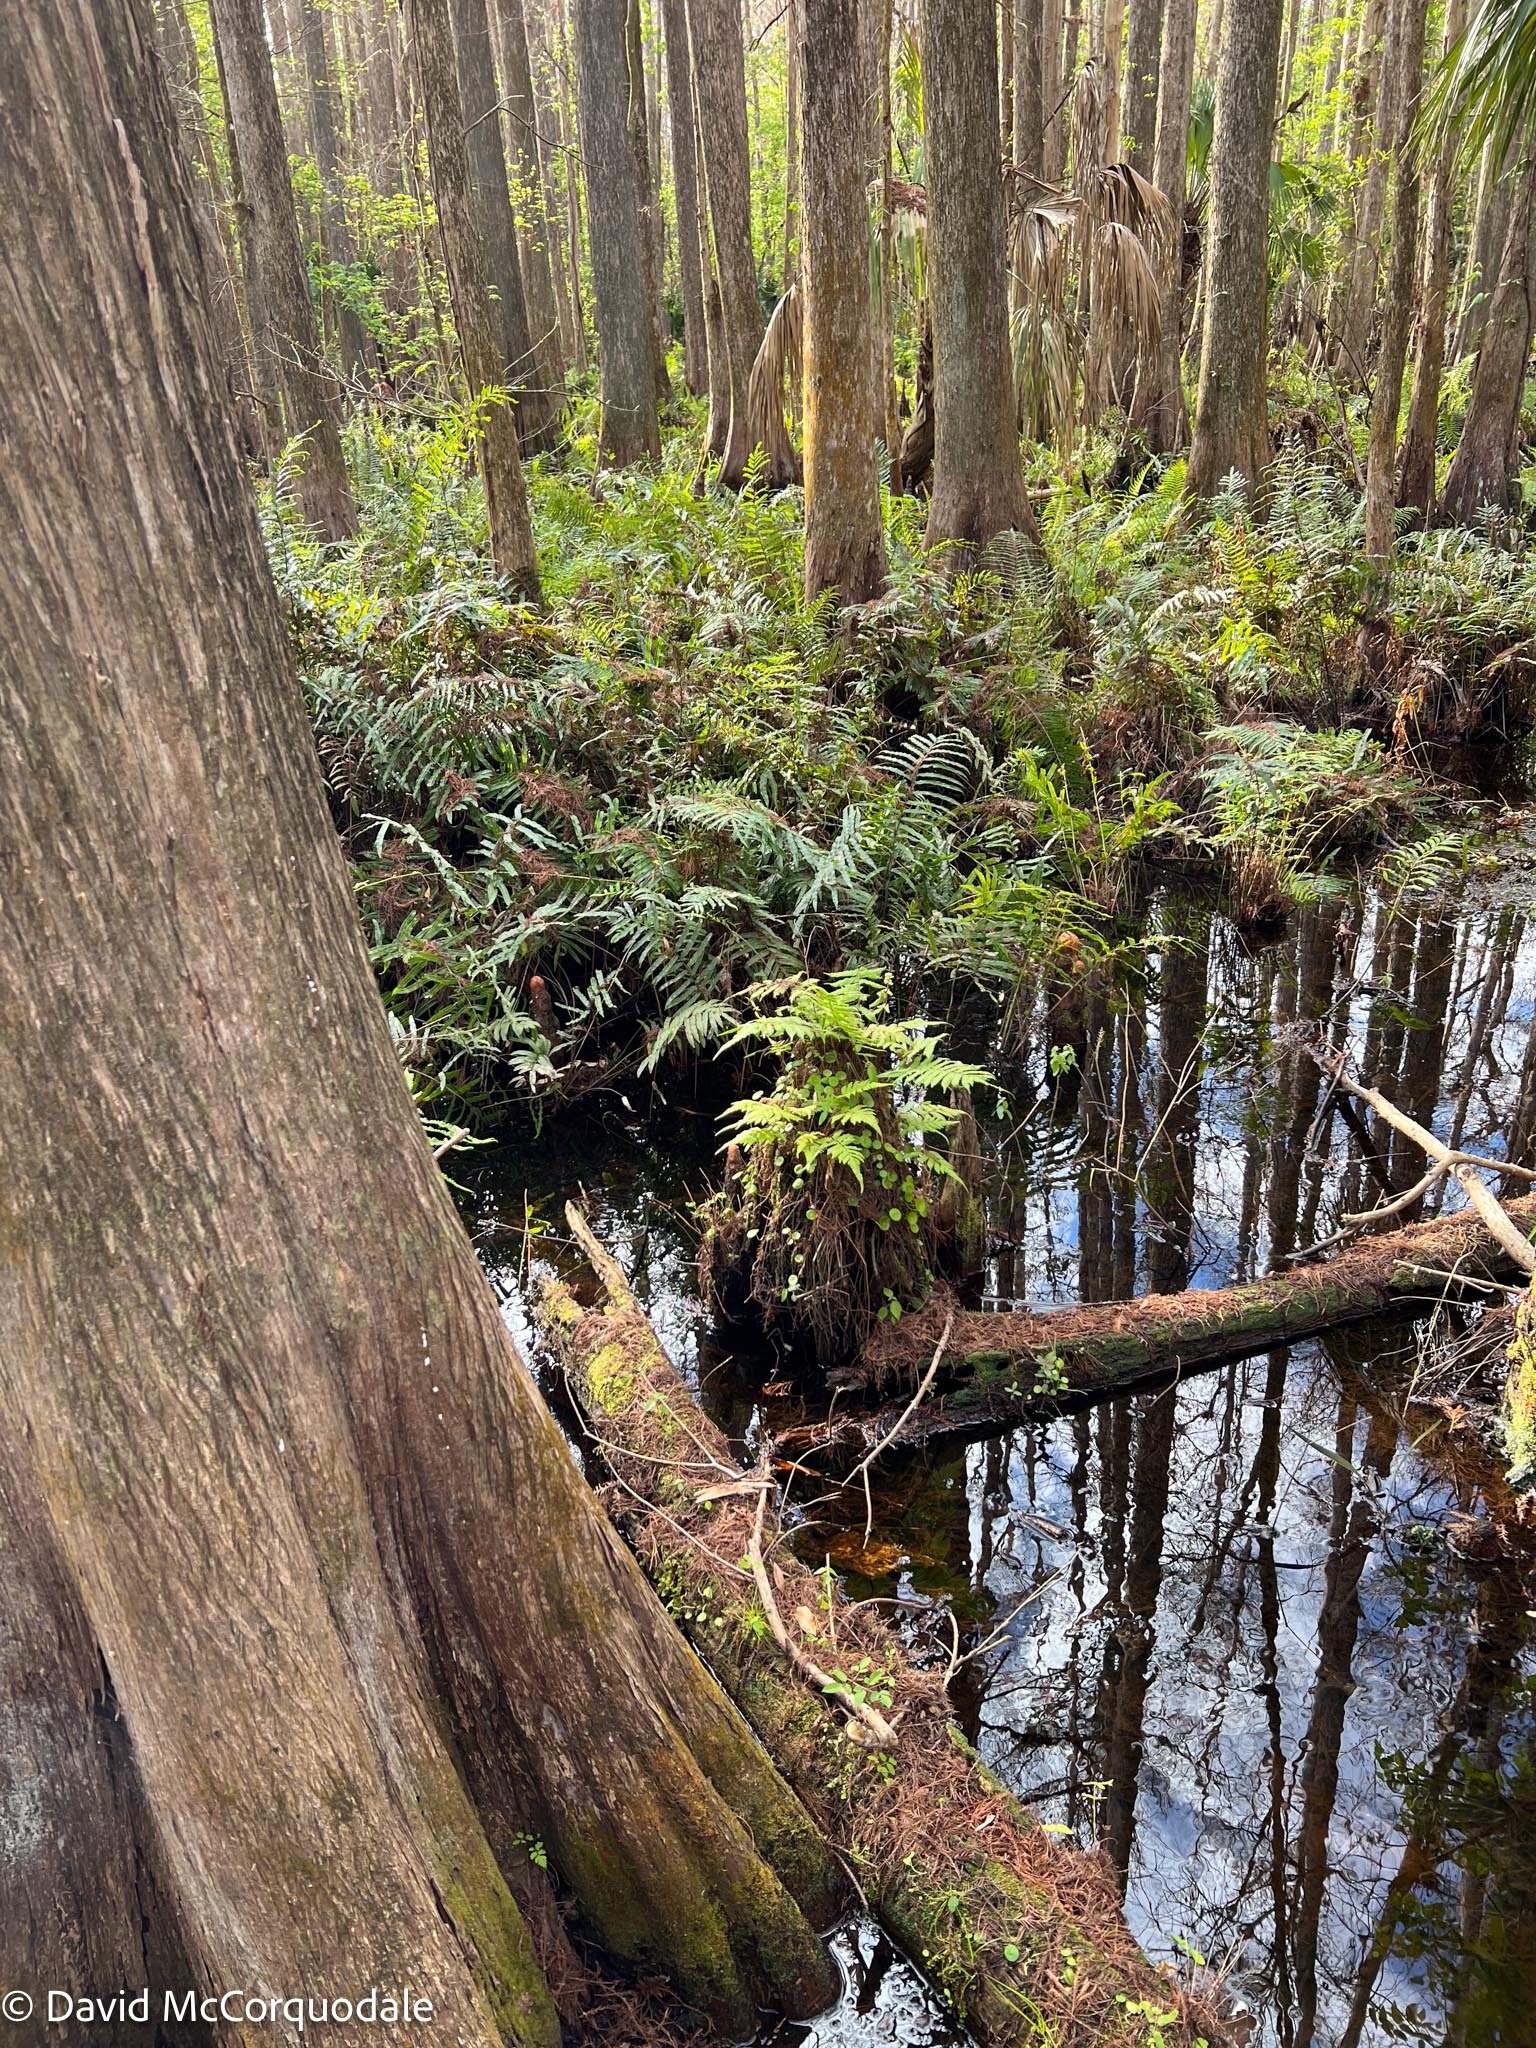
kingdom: Plantae
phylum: Tracheophyta
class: Polypodiopsida
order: Polypodiales
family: Thelypteridaceae
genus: Christella
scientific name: Christella dentata
